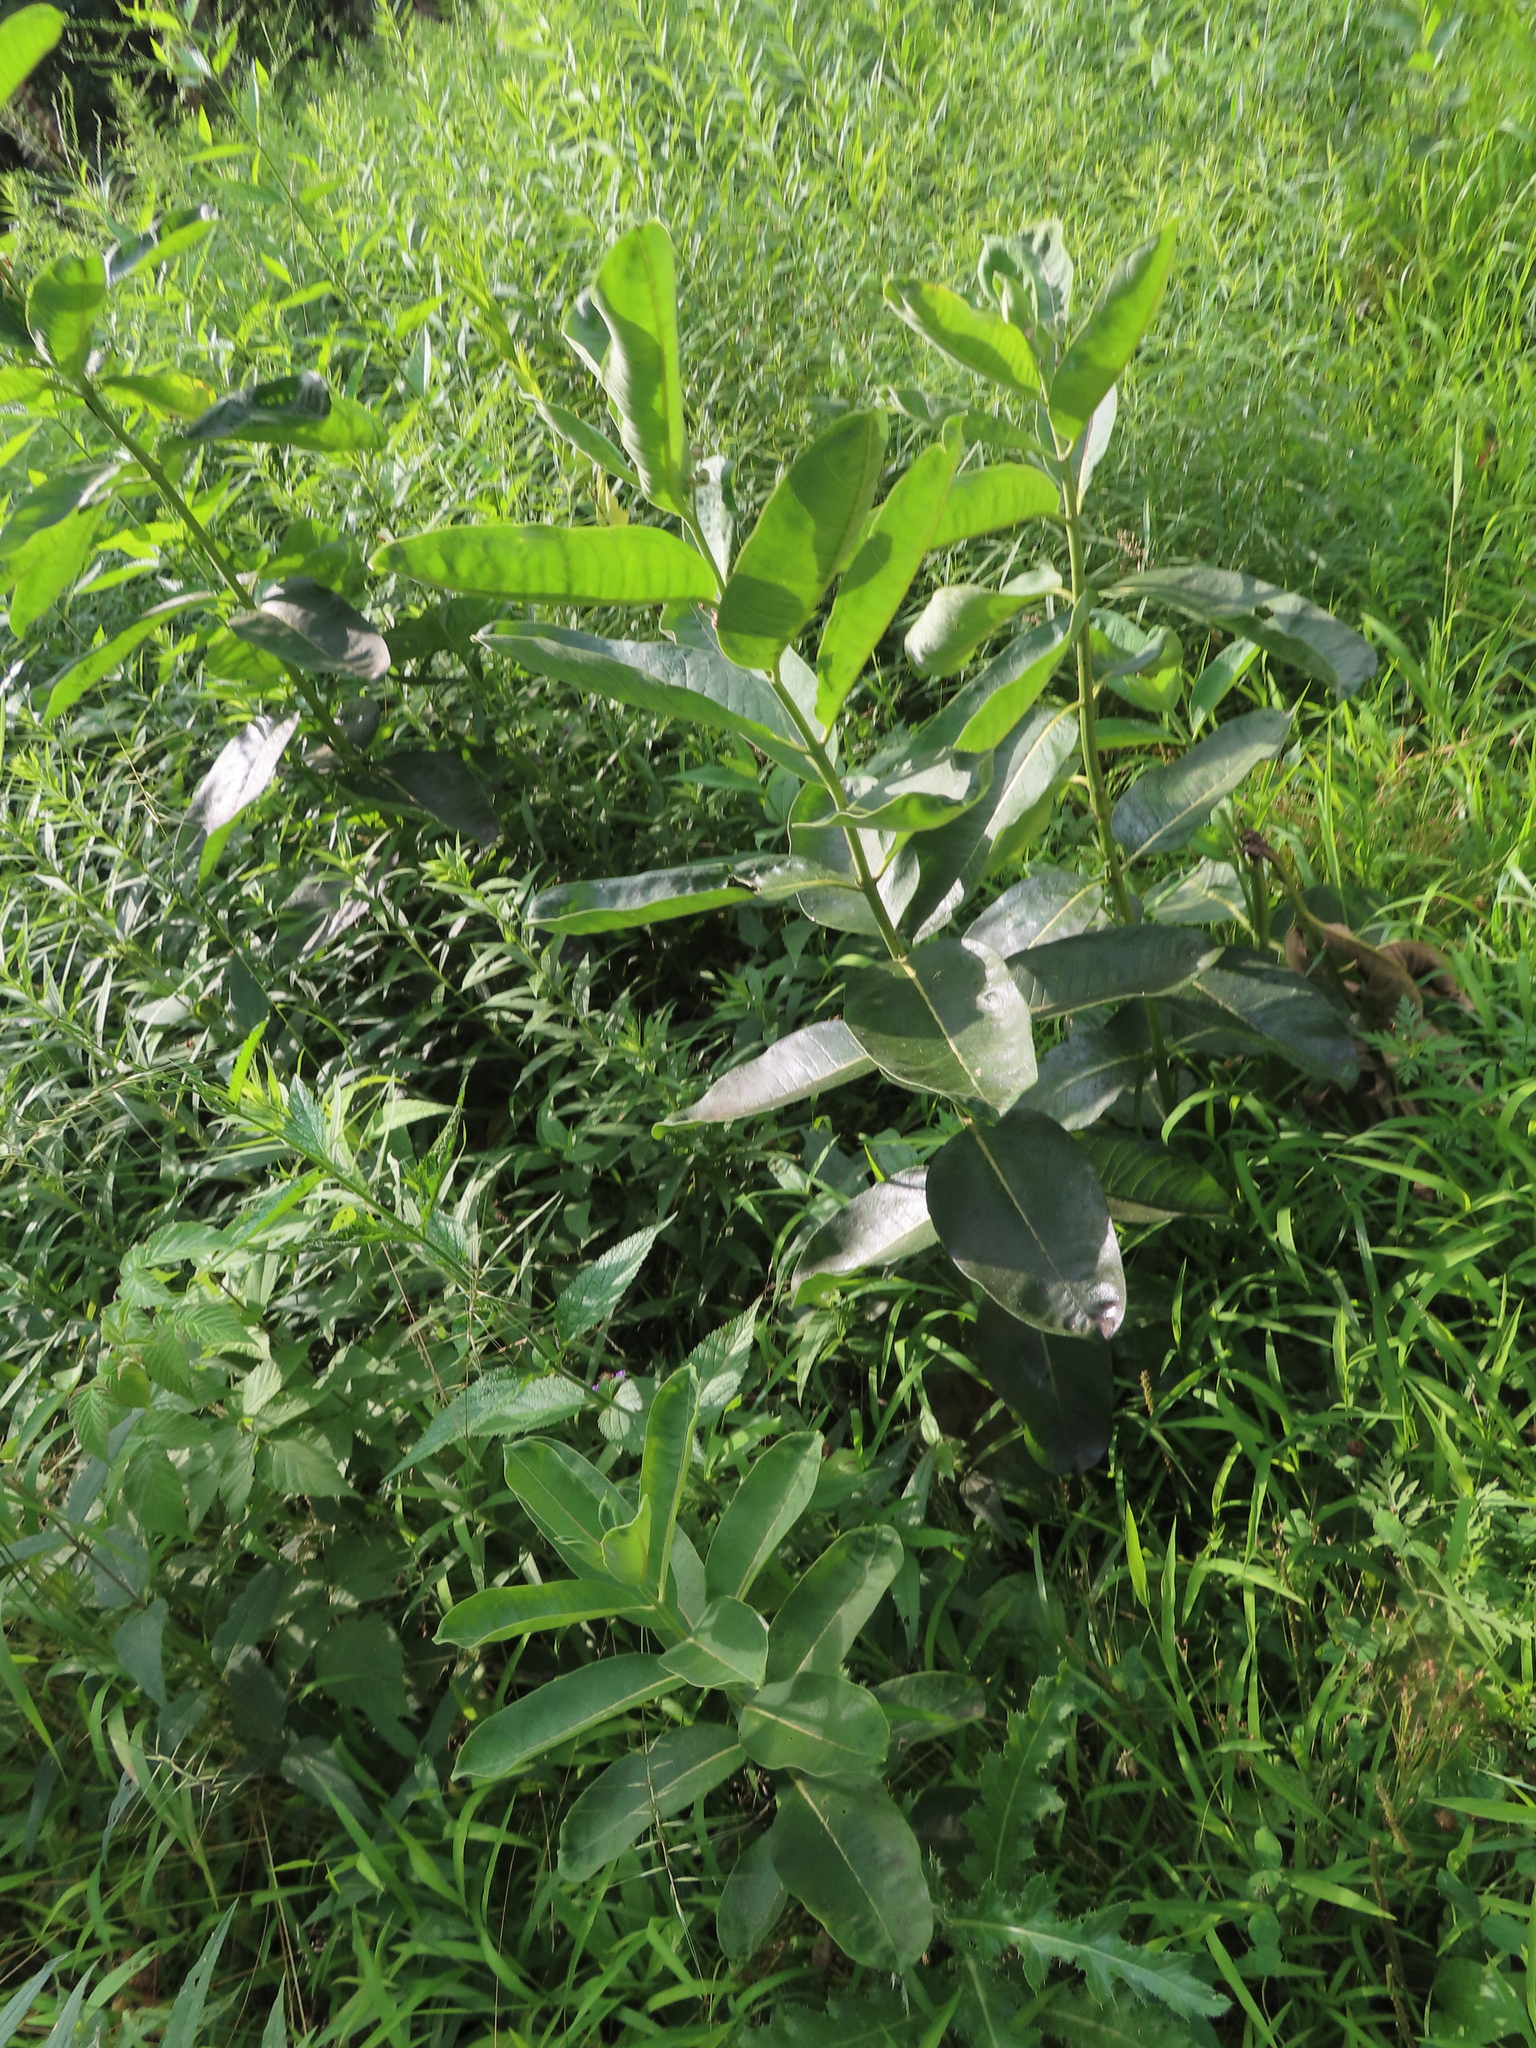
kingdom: Plantae
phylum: Tracheophyta
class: Magnoliopsida
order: Gentianales
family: Apocynaceae
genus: Asclepias
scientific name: Asclepias syriaca
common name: Common milkweed
